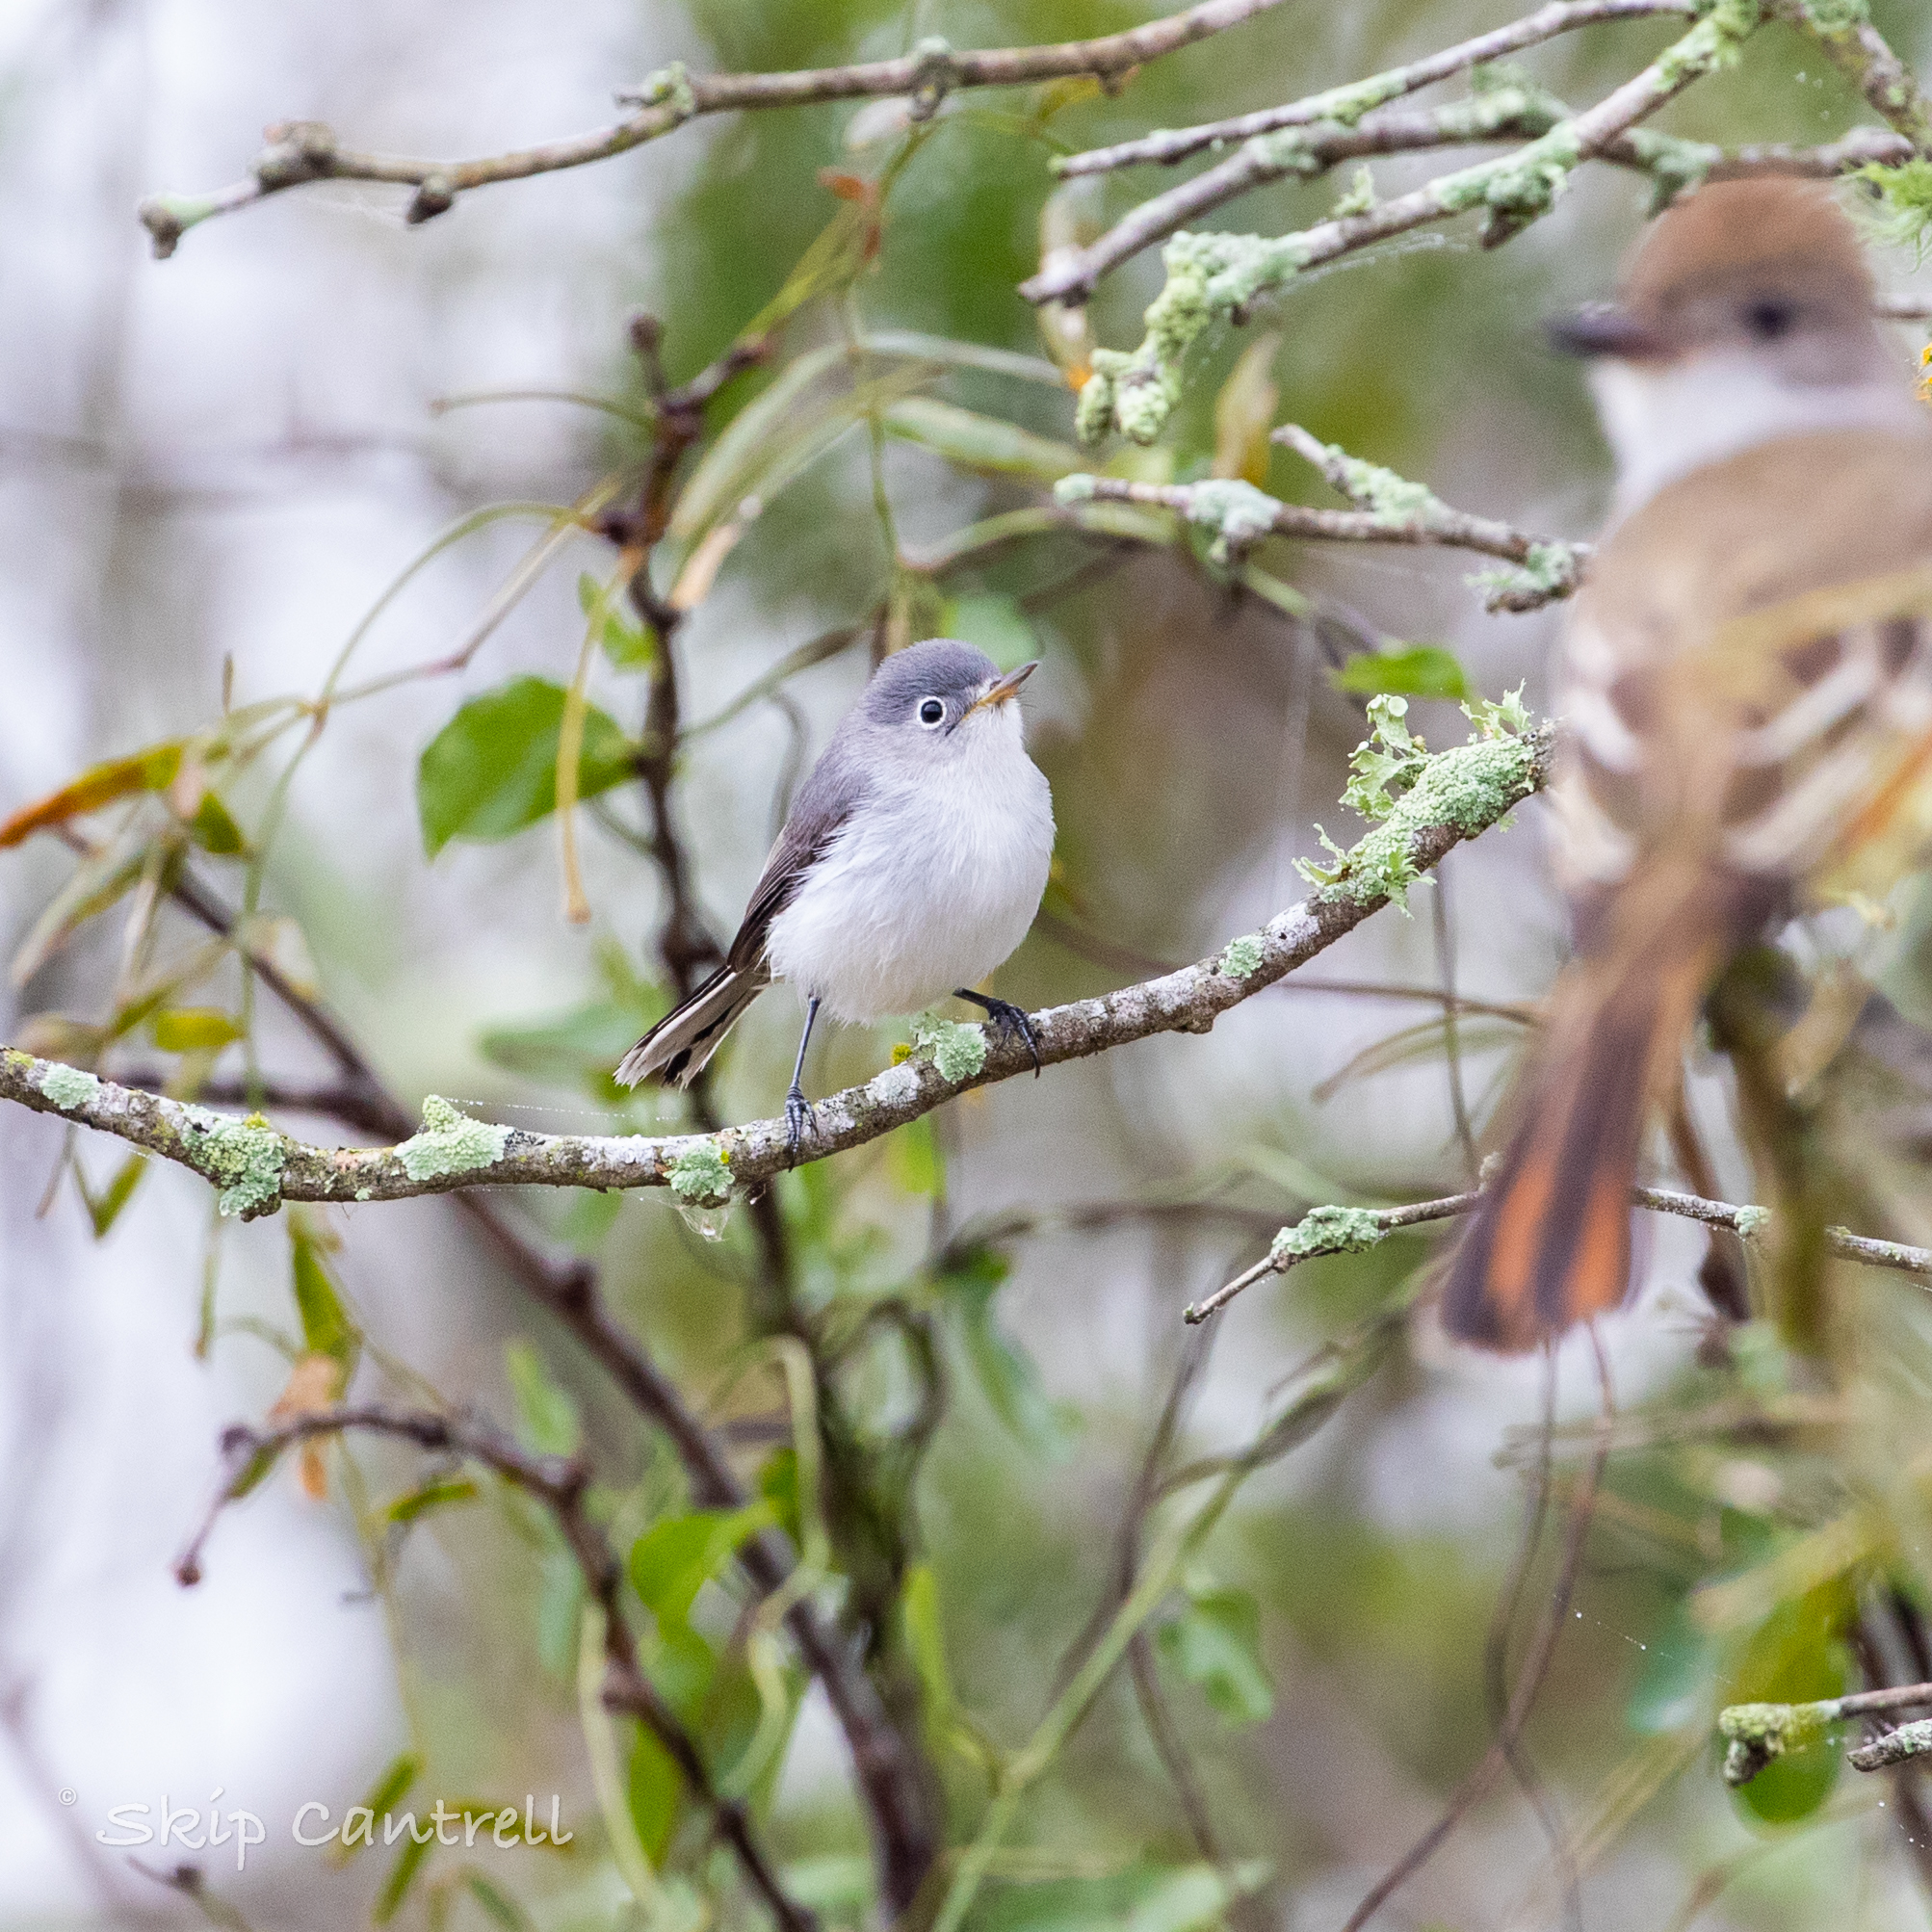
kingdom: Animalia
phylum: Chordata
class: Aves
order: Passeriformes
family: Polioptilidae
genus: Polioptila
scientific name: Polioptila caerulea
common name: Blue-gray gnatcatcher
